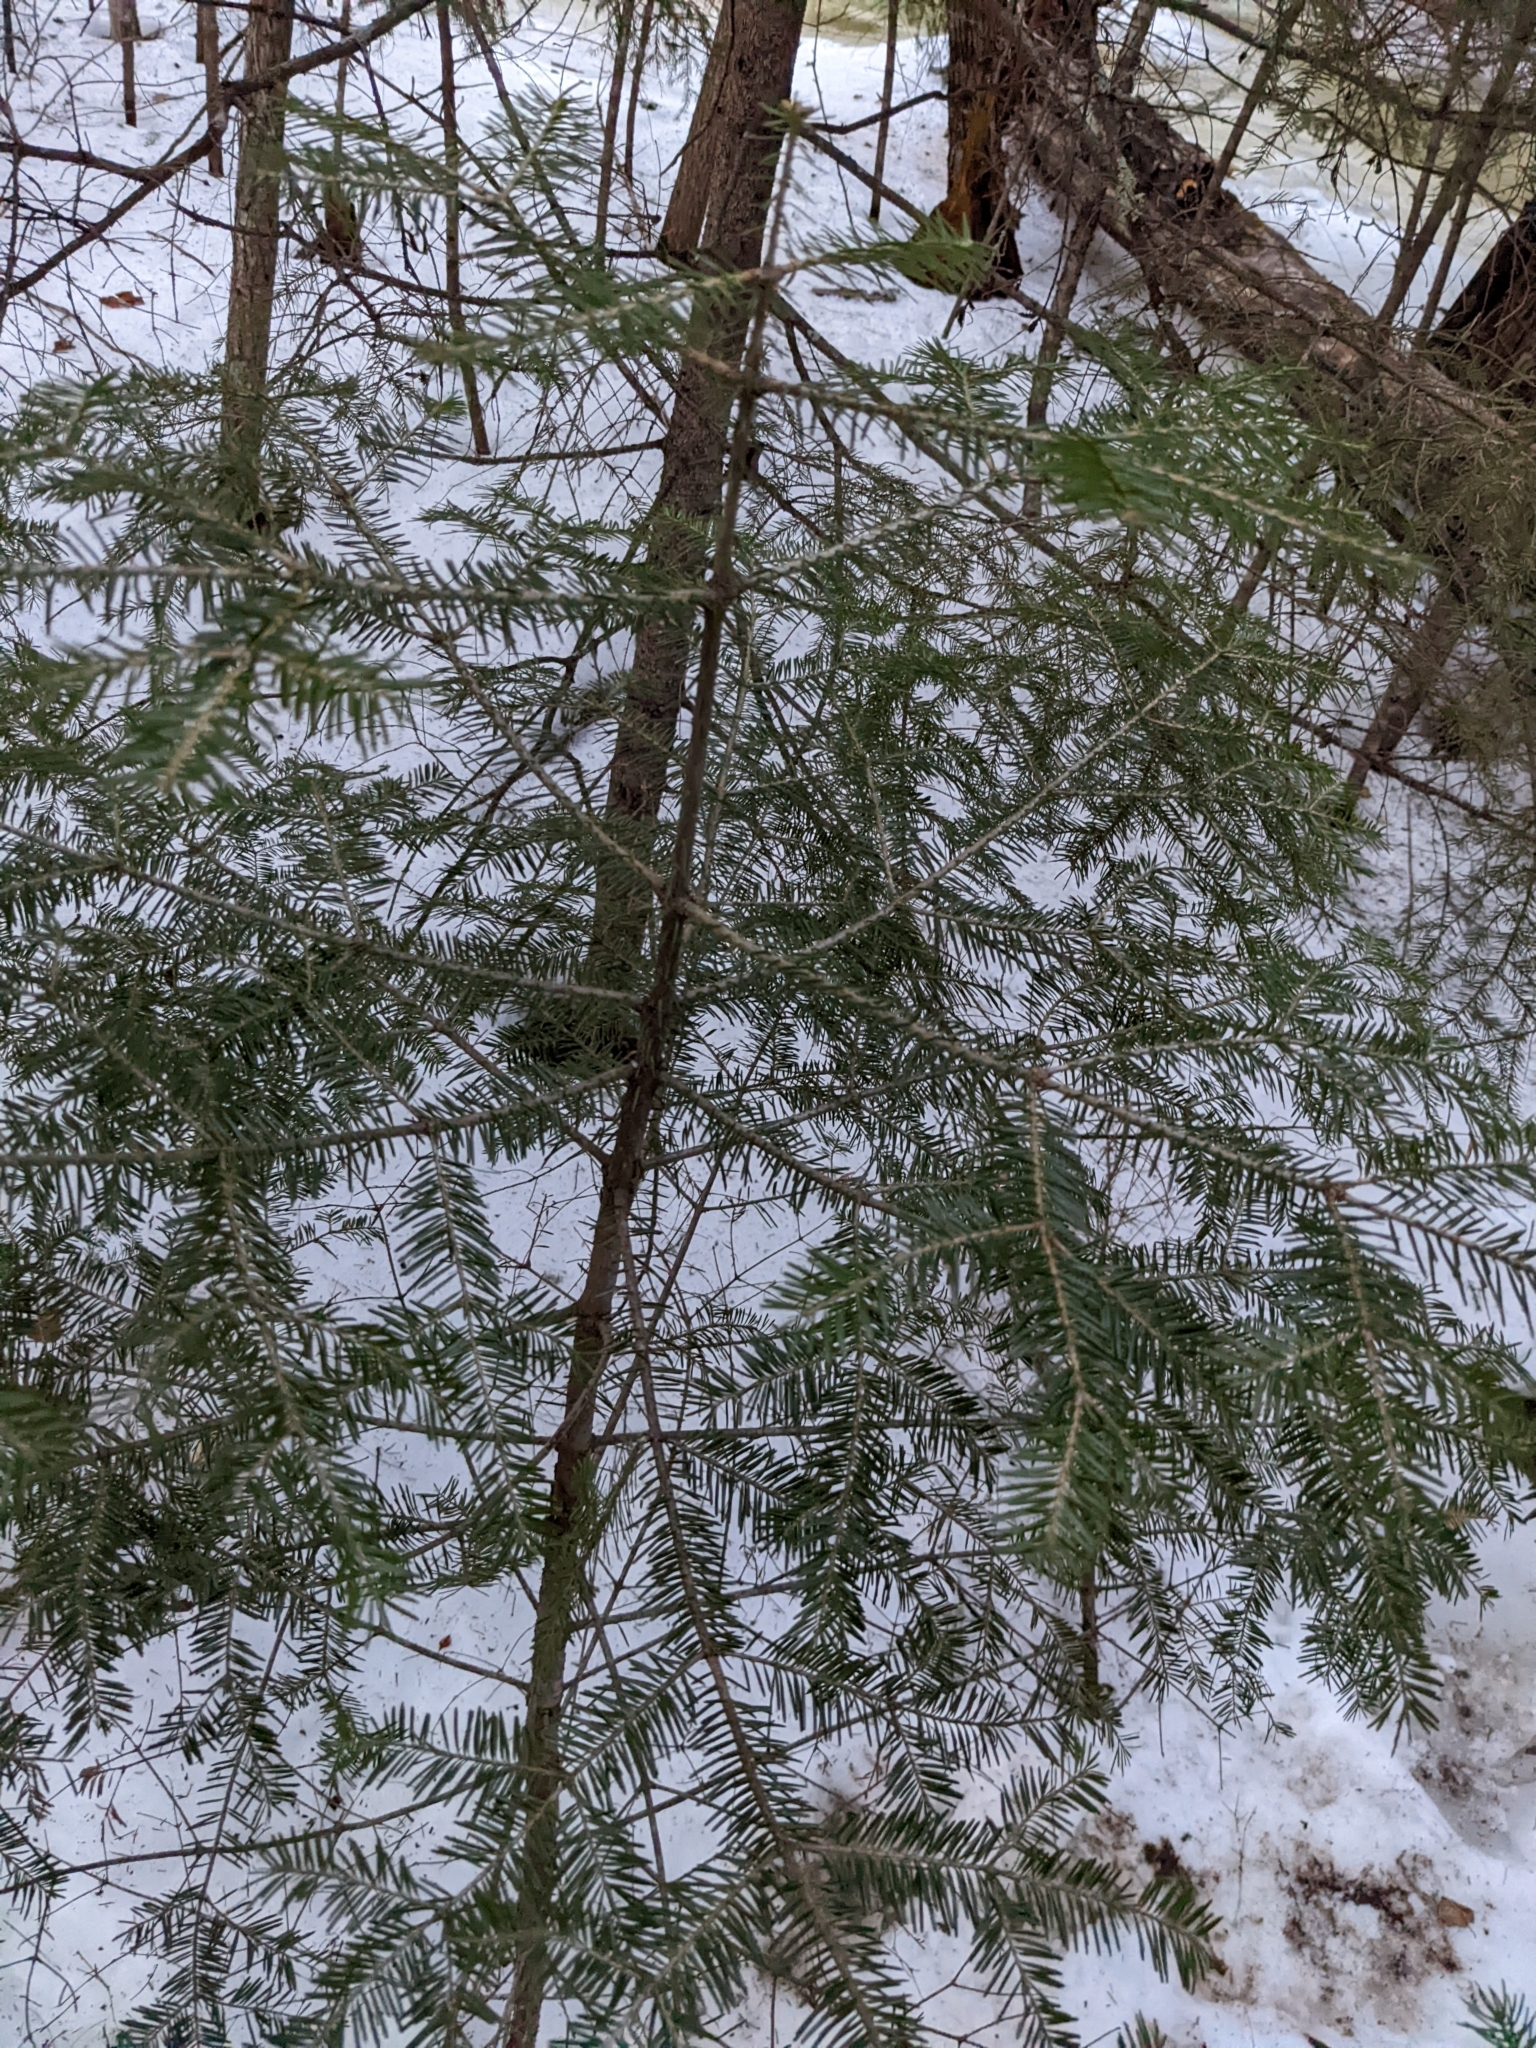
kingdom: Plantae
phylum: Tracheophyta
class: Pinopsida
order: Pinales
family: Pinaceae
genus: Abies
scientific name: Abies balsamea
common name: Balsam fir
